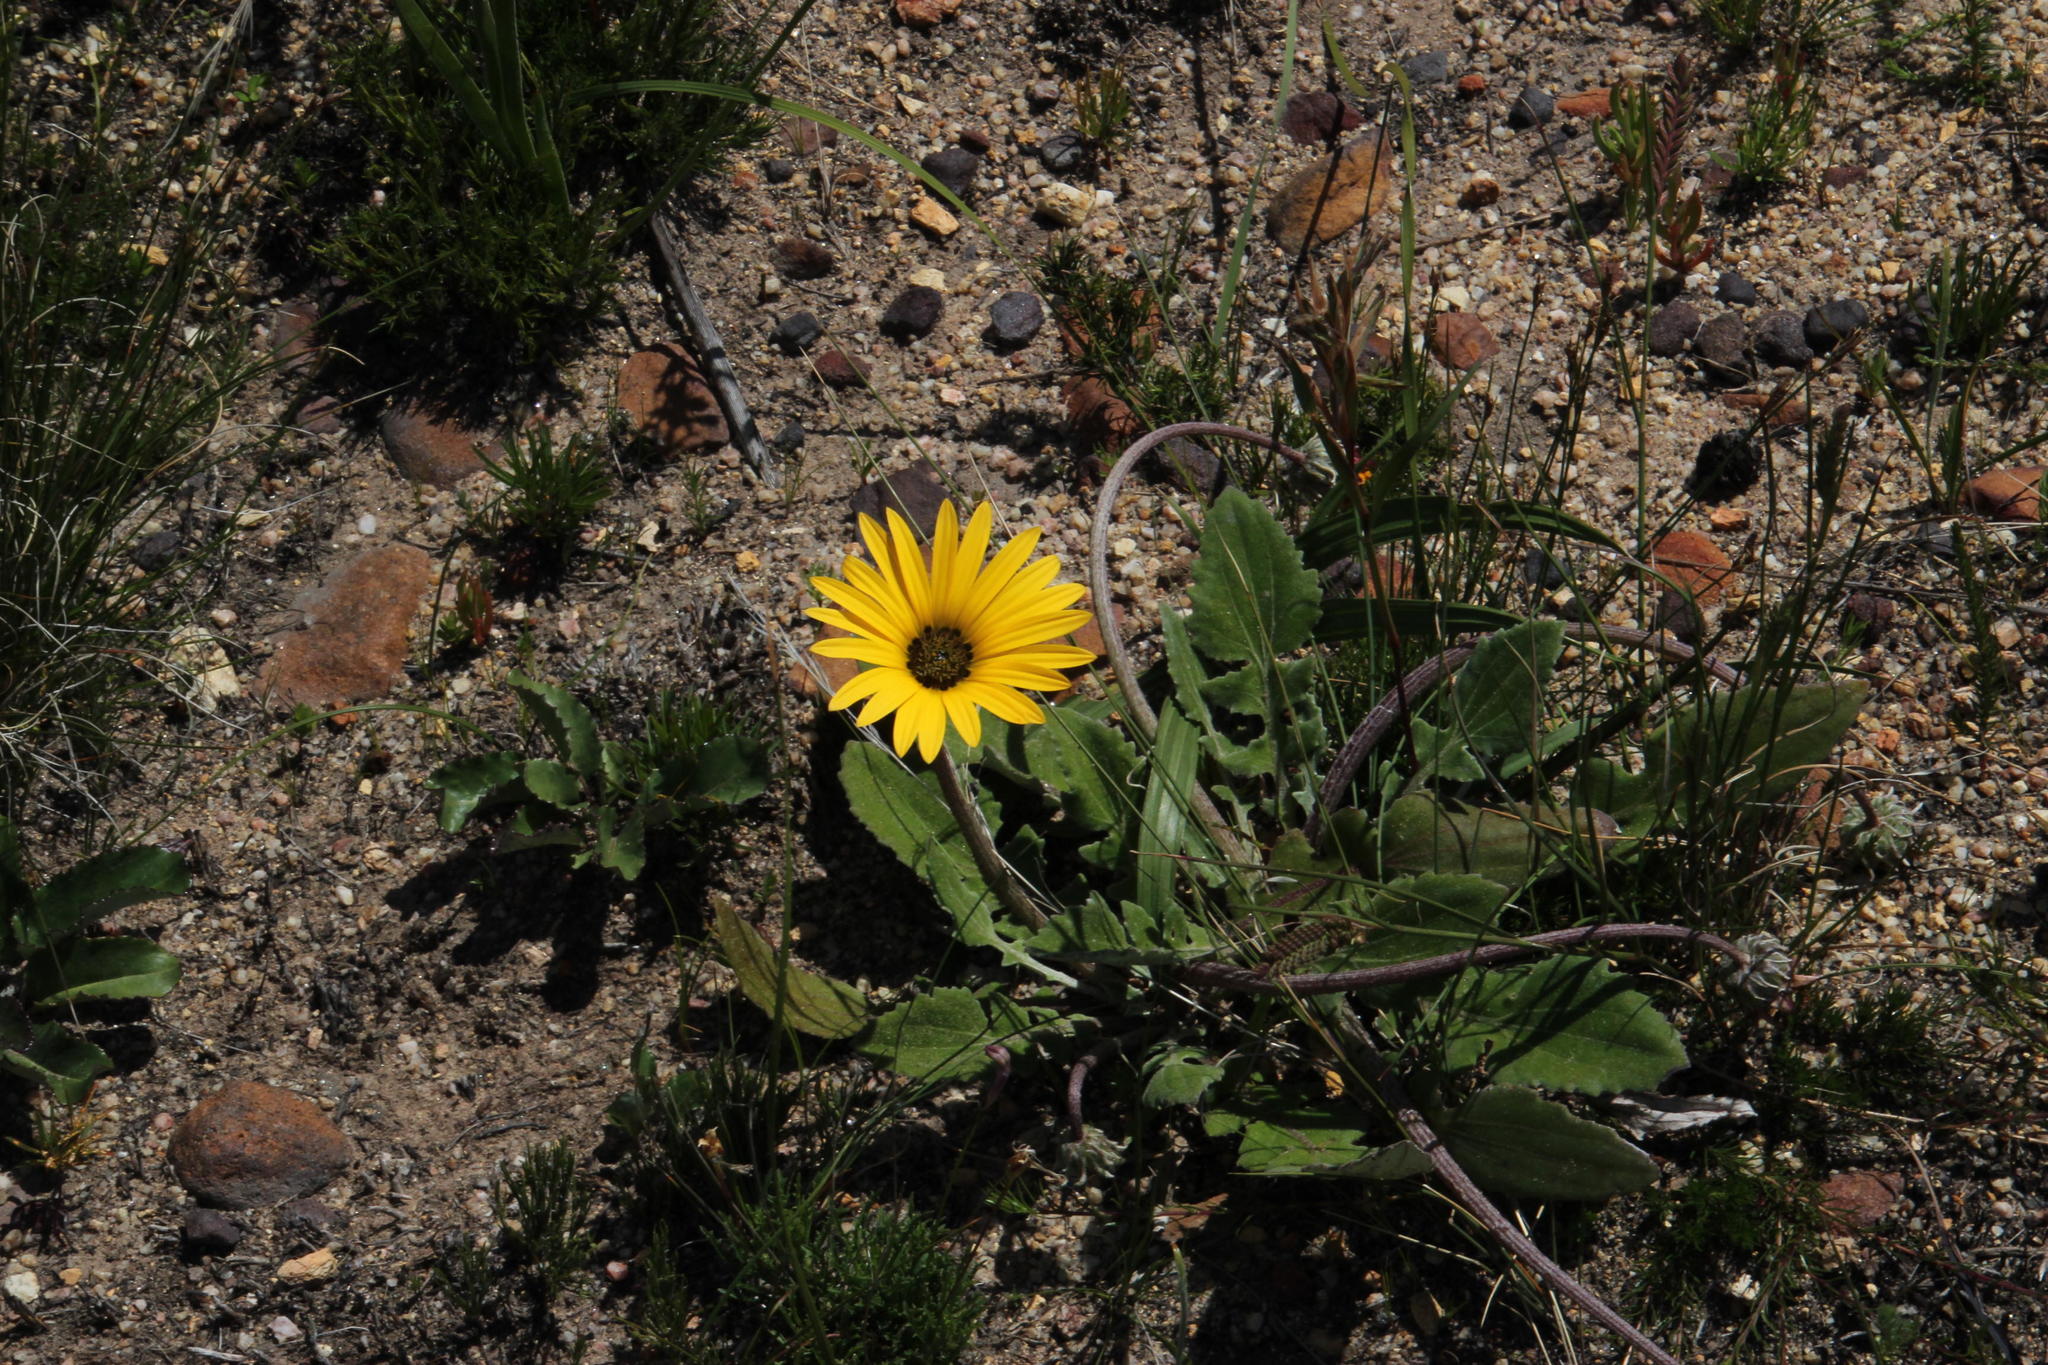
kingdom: Plantae
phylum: Tracheophyta
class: Magnoliopsida
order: Asterales
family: Asteraceae
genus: Arctotis
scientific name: Arctotis acaulis
